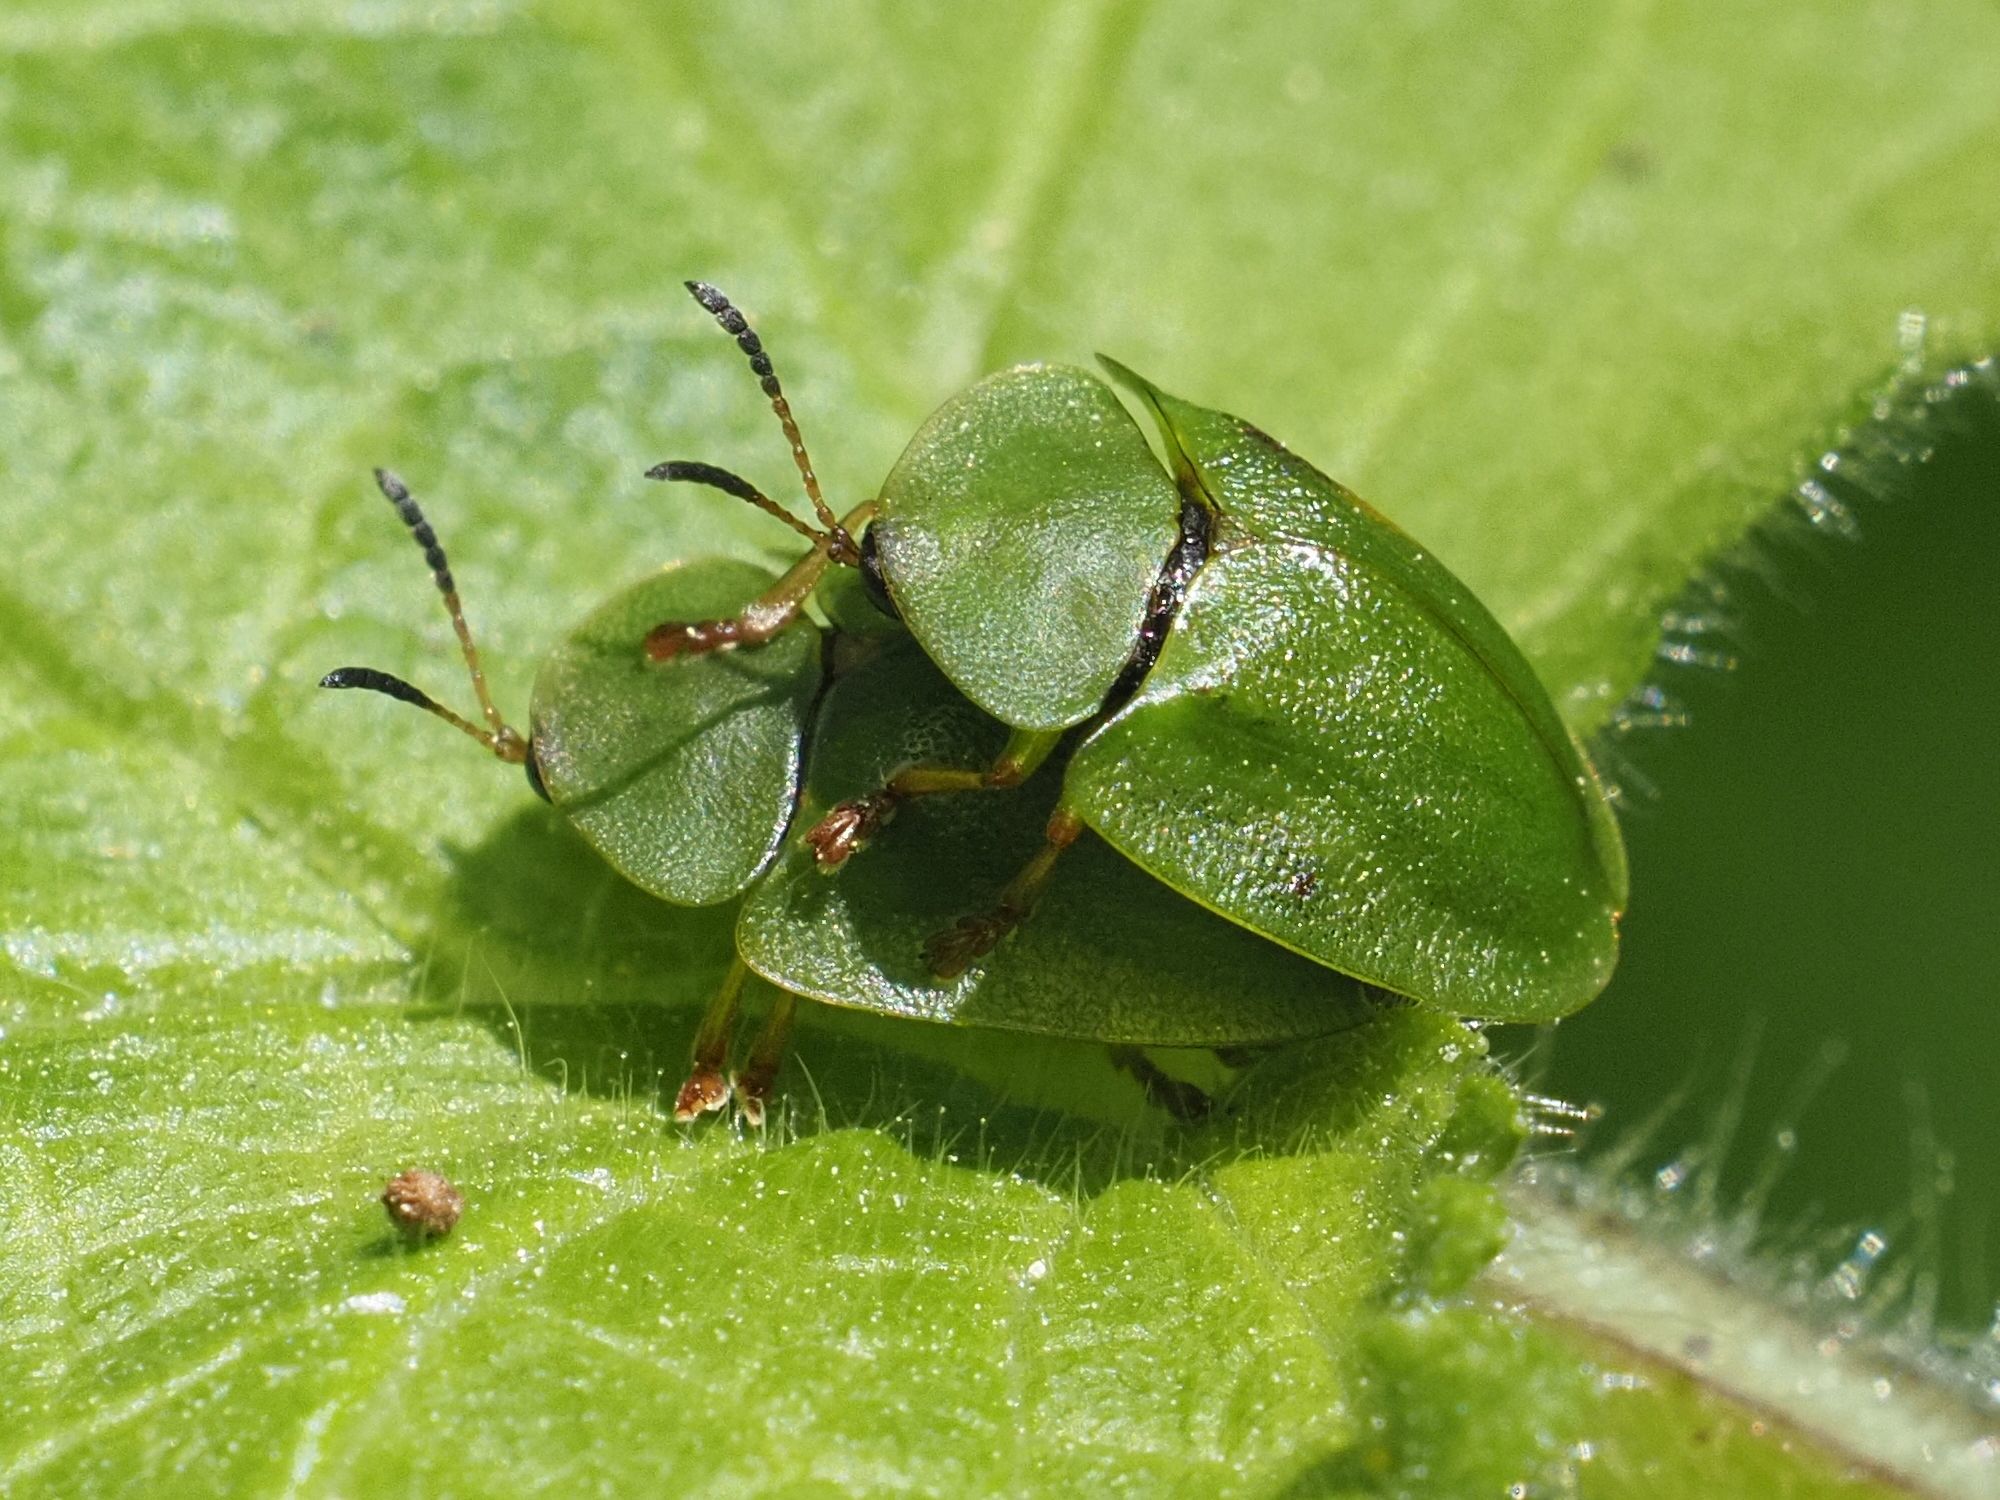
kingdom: Animalia
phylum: Arthropoda
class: Insecta
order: Coleoptera
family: Chrysomelidae
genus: Cassida
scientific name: Cassida viridis
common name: Green tortoise beetle
